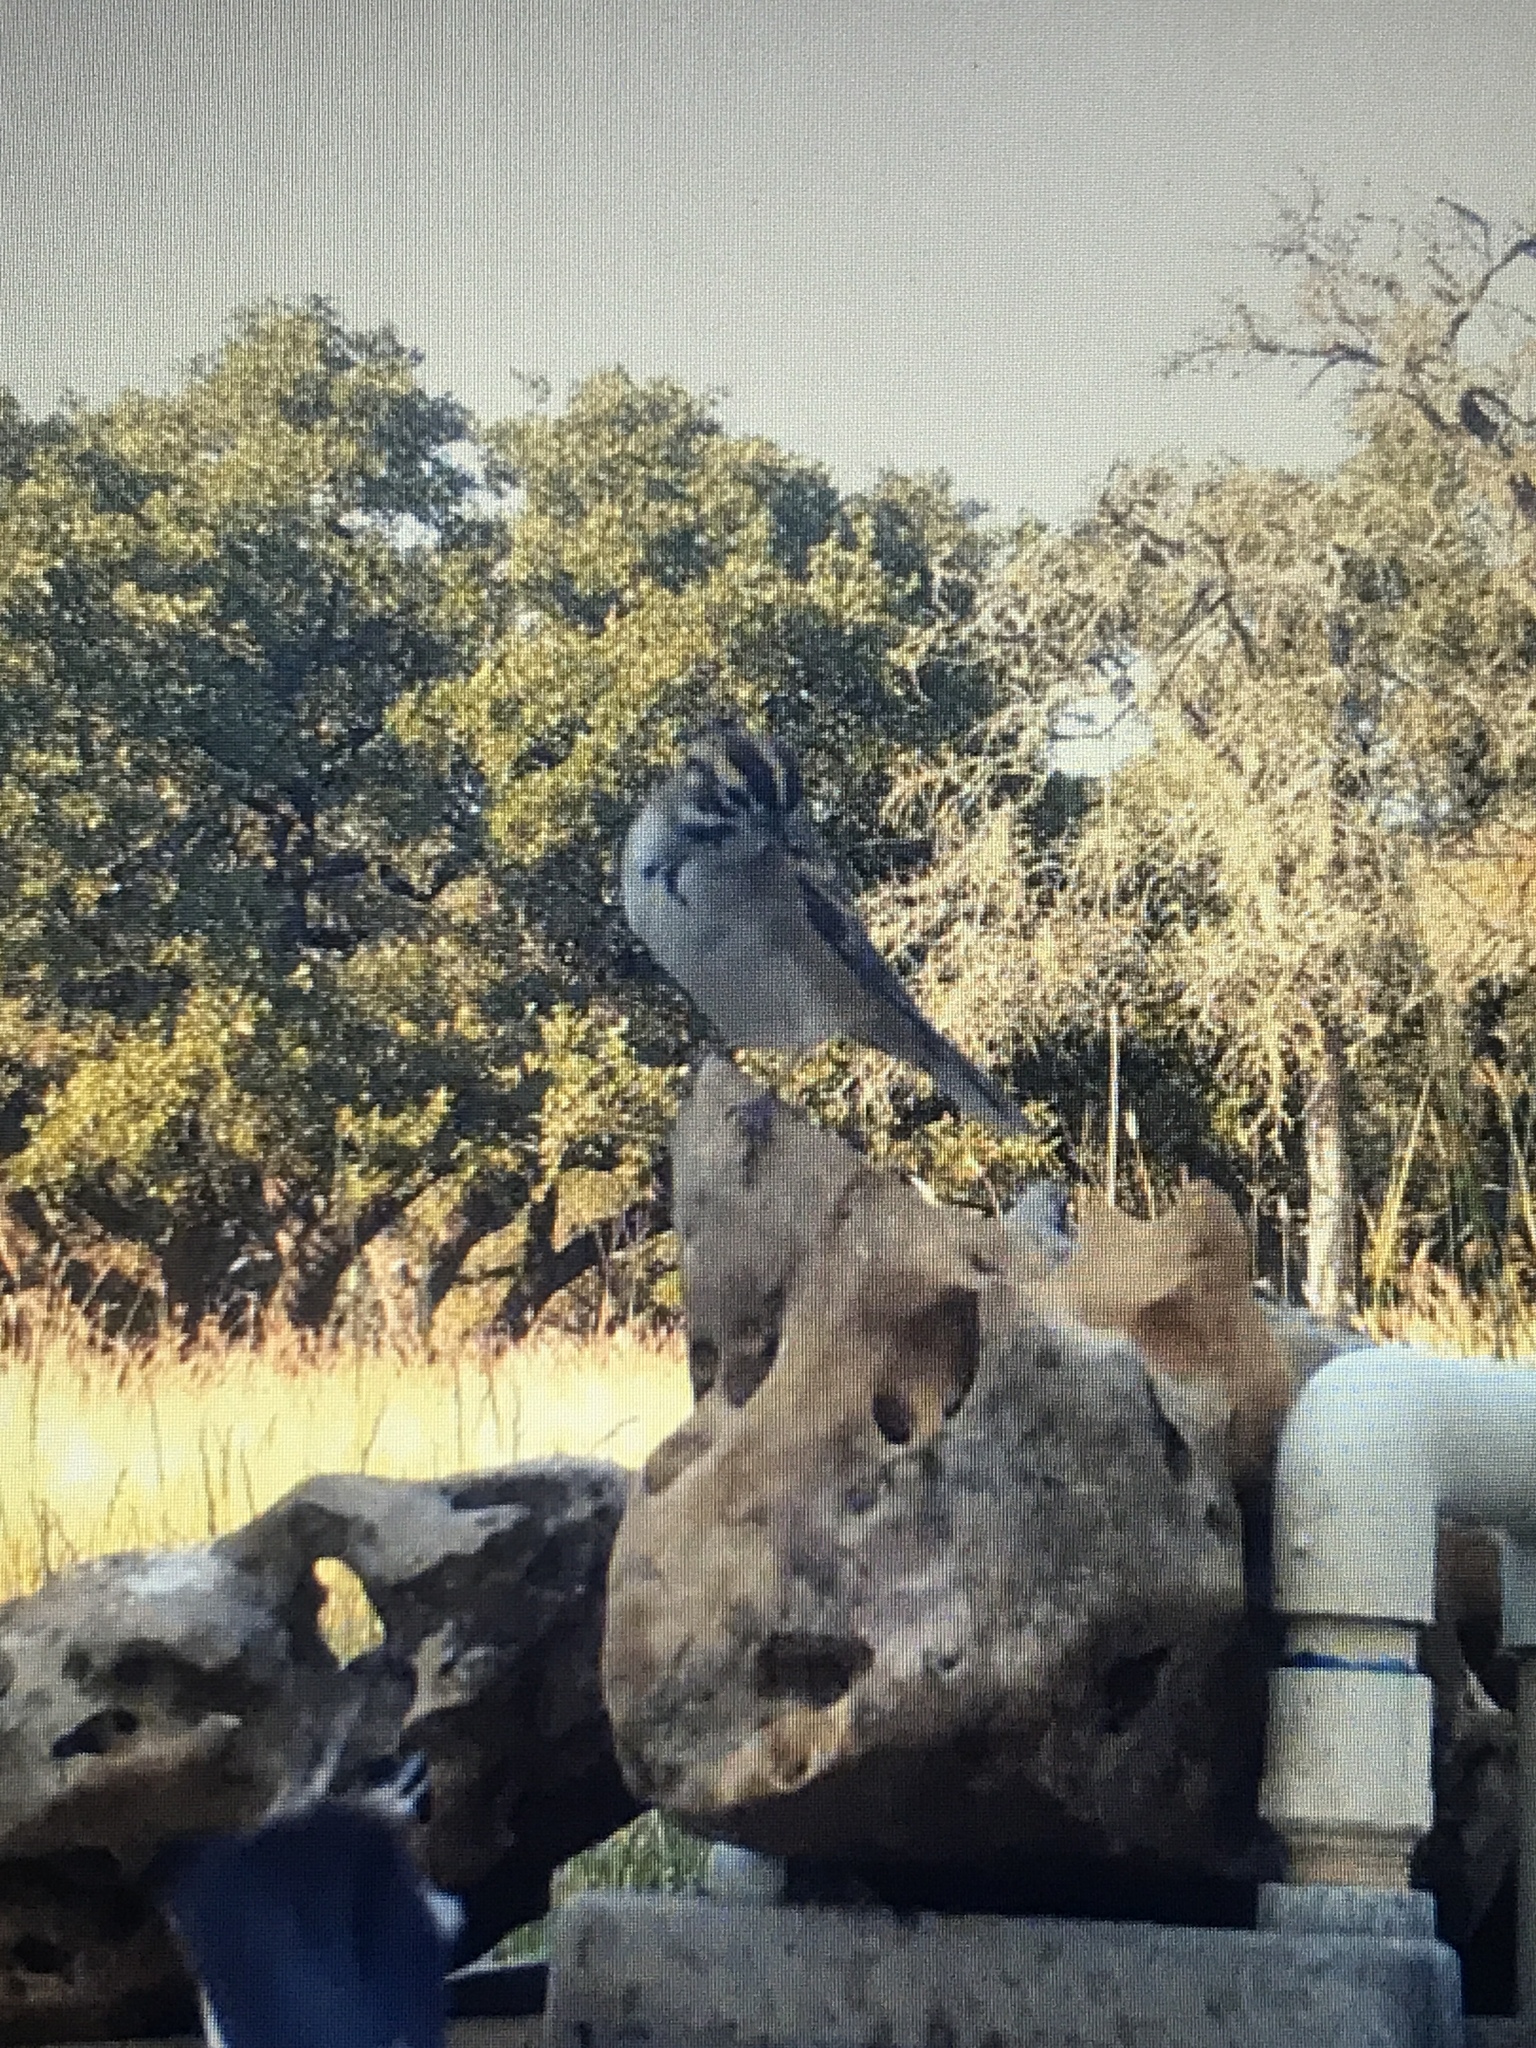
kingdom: Animalia
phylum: Chordata
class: Aves
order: Passeriformes
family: Passerellidae
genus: Chondestes
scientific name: Chondestes grammacus
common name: Lark sparrow
